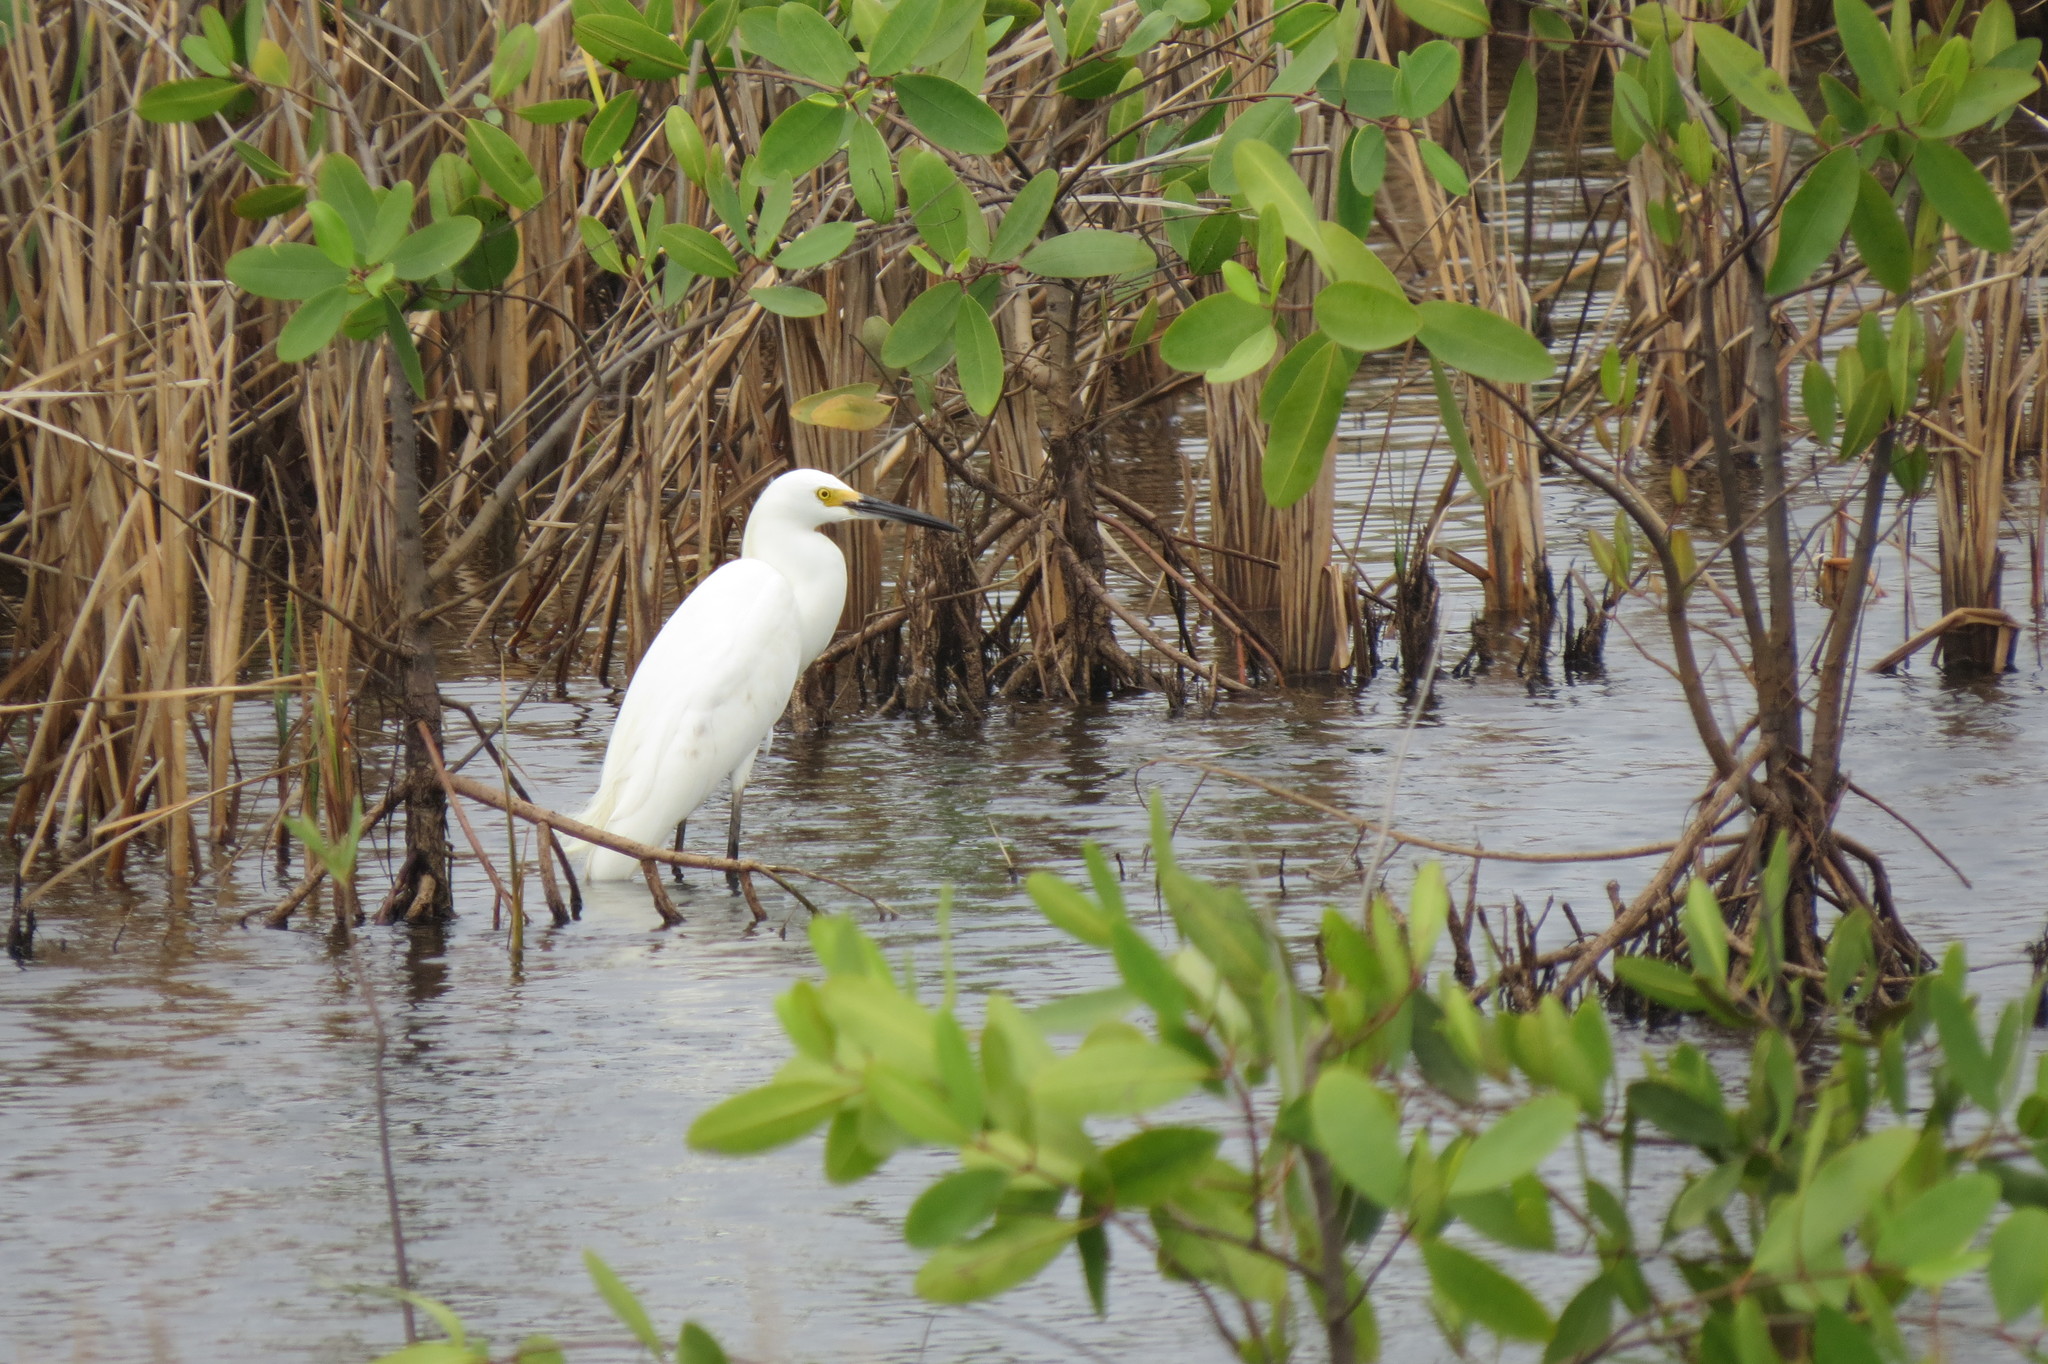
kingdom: Animalia
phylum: Chordata
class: Aves
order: Pelecaniformes
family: Ardeidae
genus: Egretta
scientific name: Egretta thula
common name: Snowy egret
